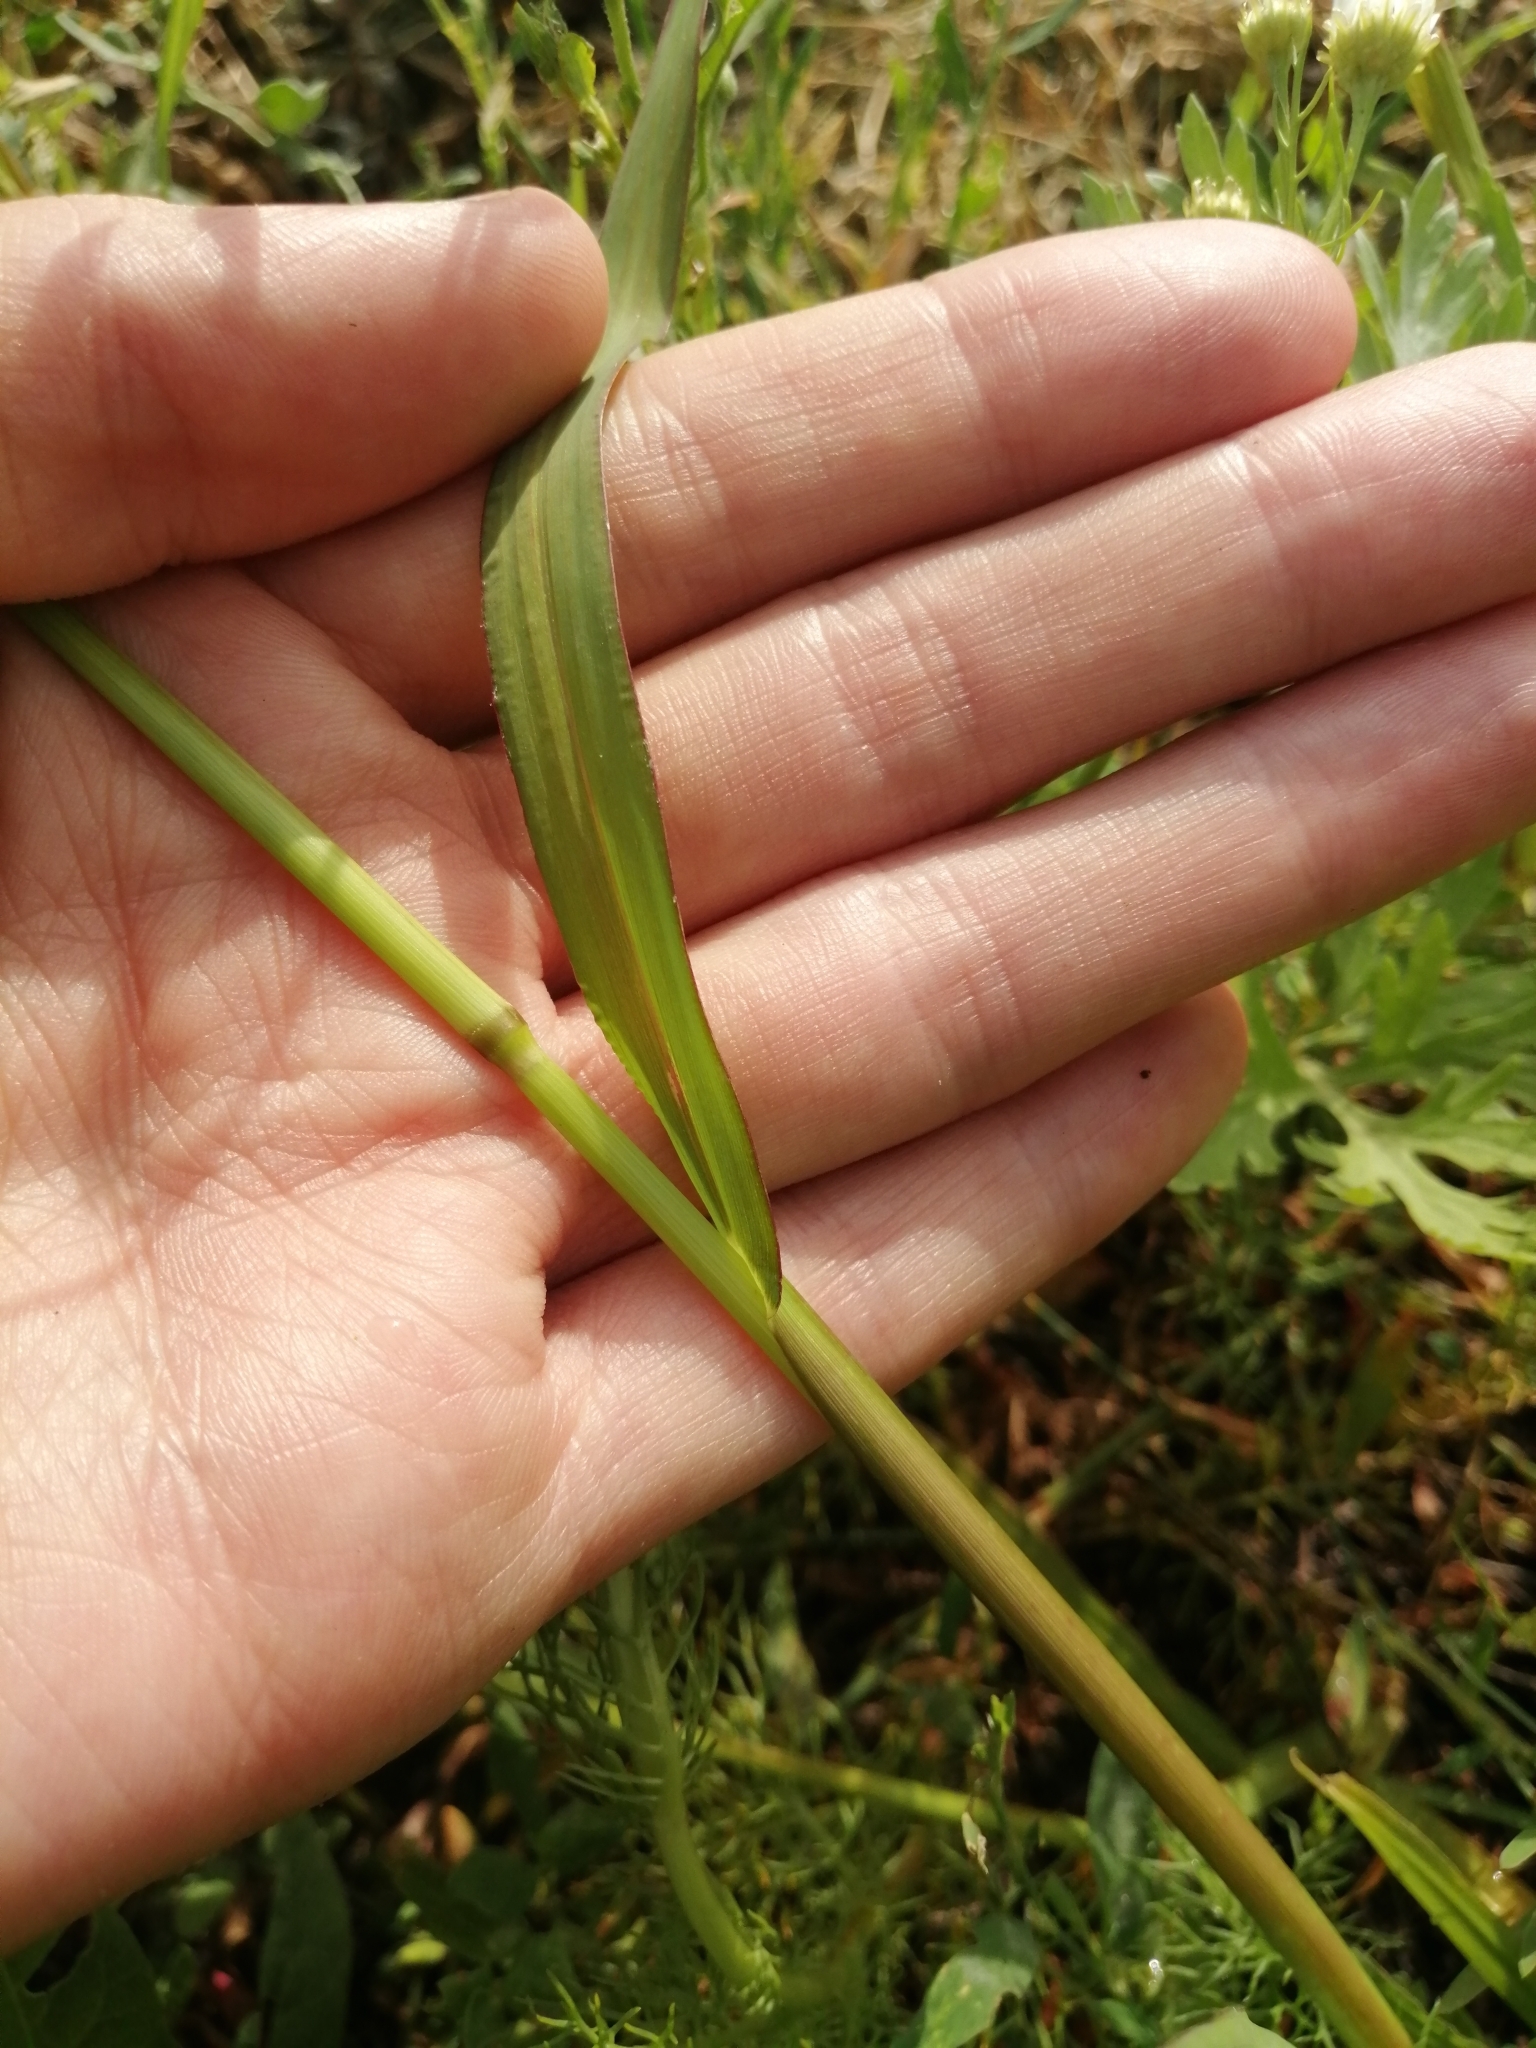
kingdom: Plantae
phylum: Tracheophyta
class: Liliopsida
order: Poales
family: Poaceae
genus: Echinochloa
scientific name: Echinochloa crus-galli
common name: Cockspur
